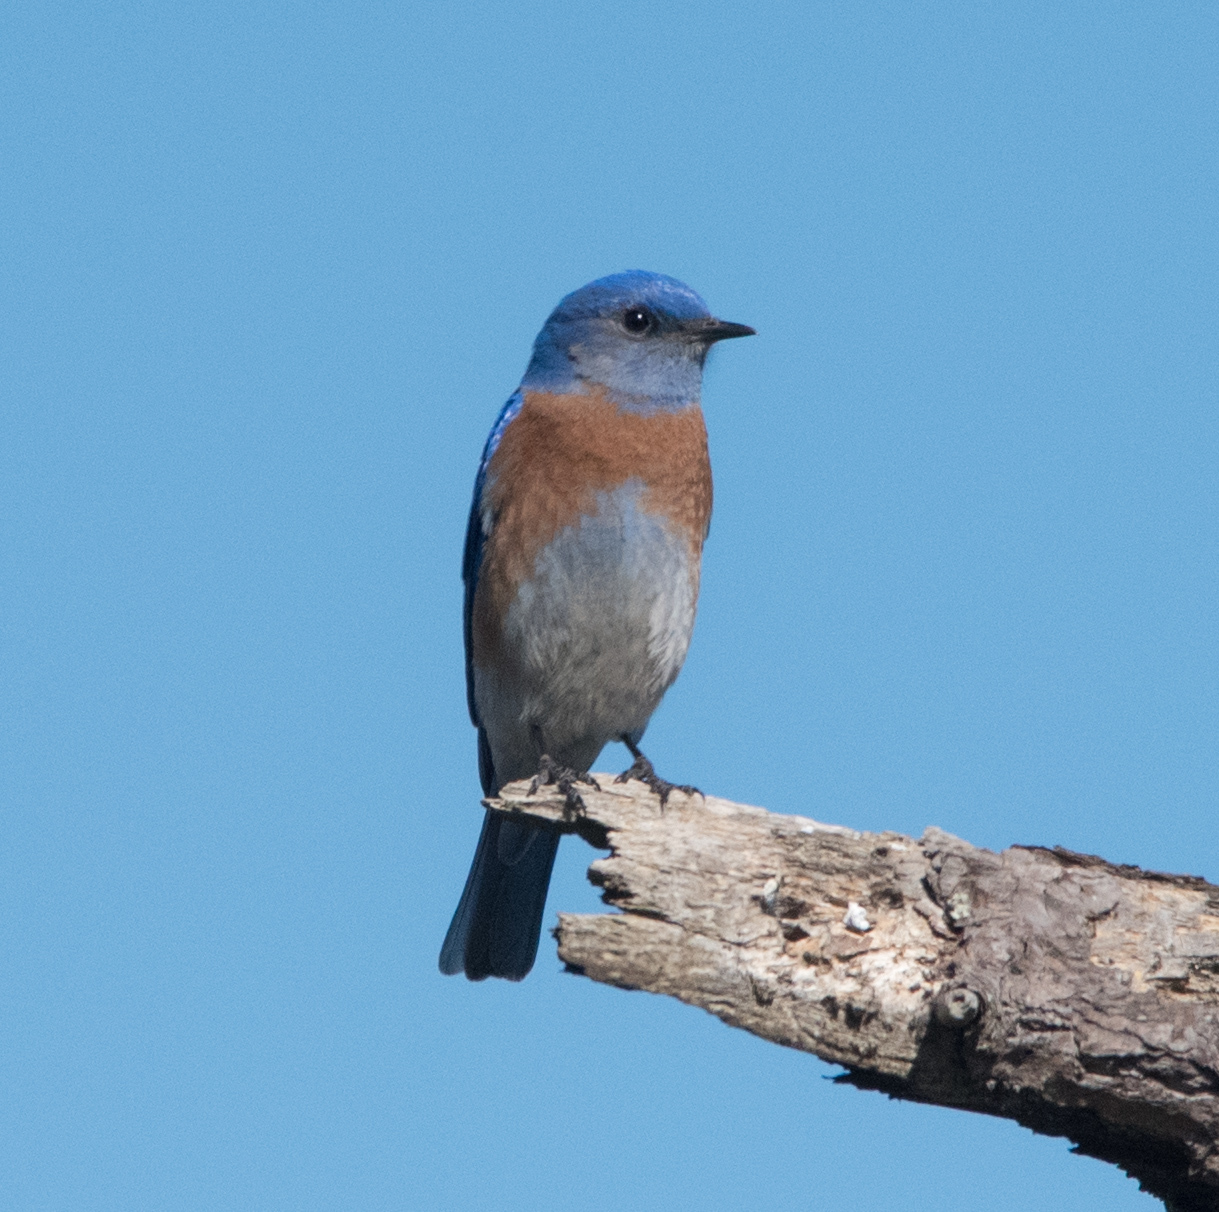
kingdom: Animalia
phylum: Chordata
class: Aves
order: Passeriformes
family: Turdidae
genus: Sialia
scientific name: Sialia mexicana
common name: Western bluebird
